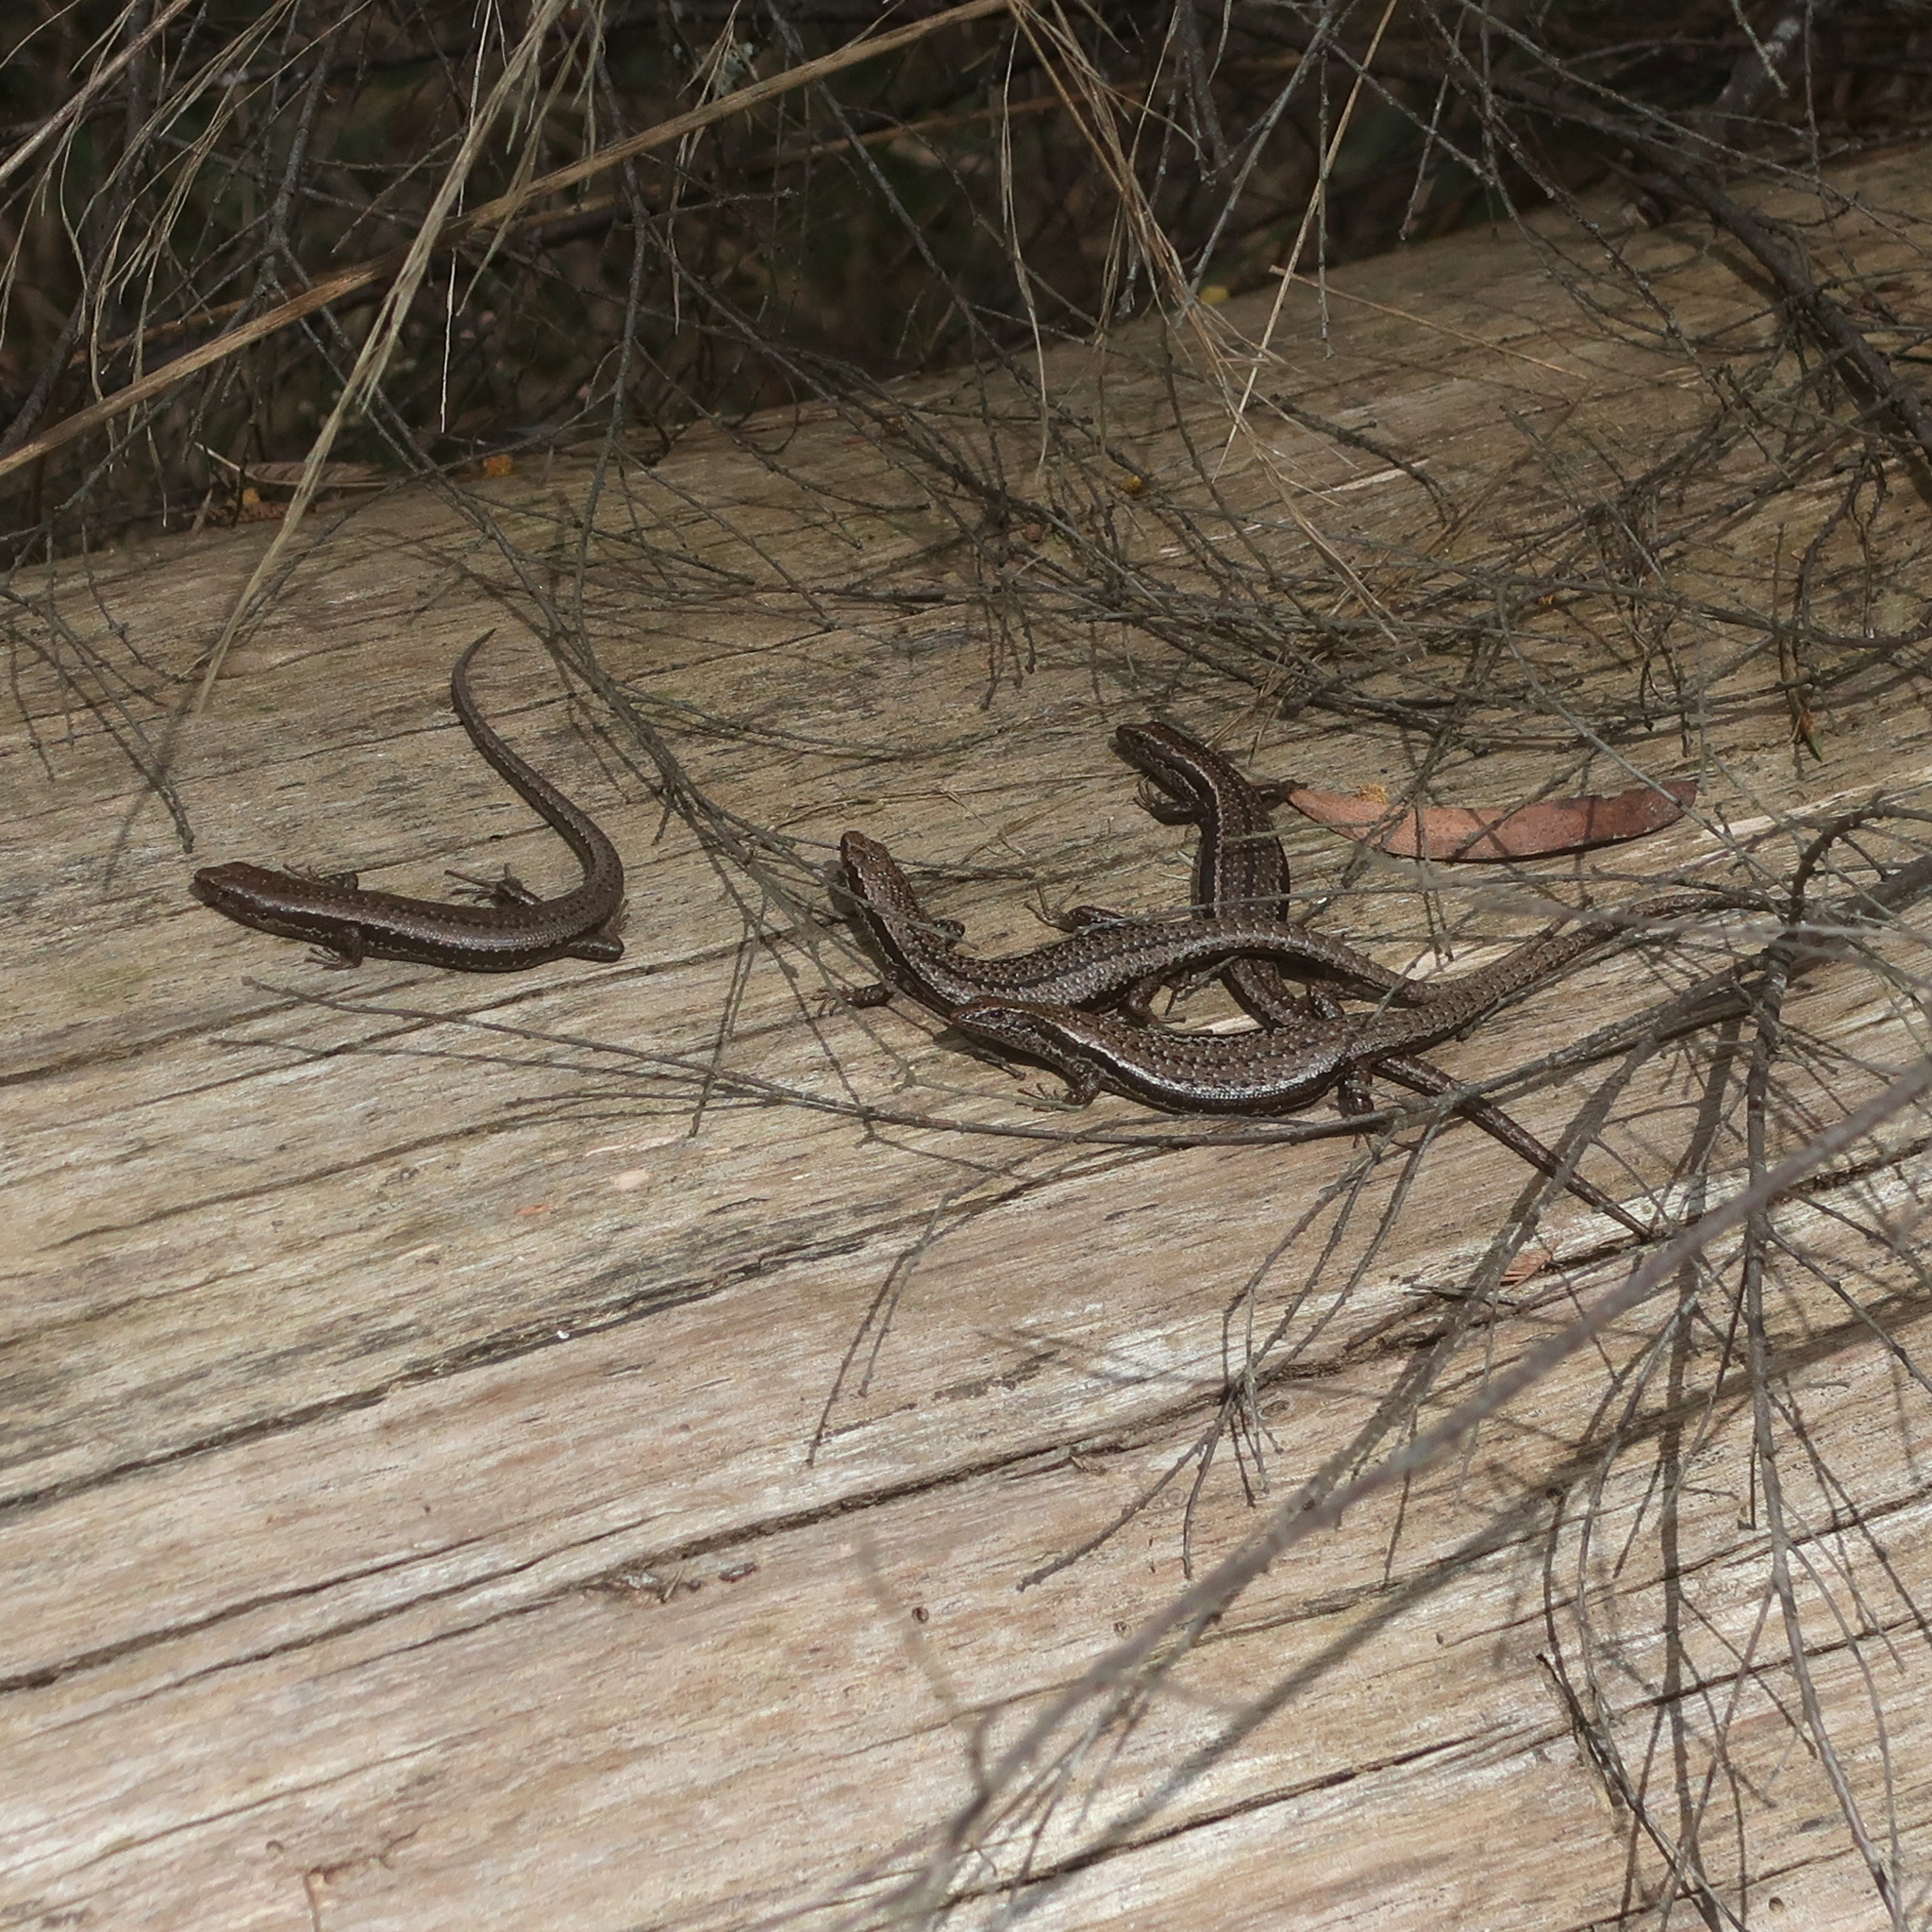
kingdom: Animalia
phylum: Chordata
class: Squamata
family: Scincidae
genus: Carinascincus
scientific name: Carinascincus pretiosus
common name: Agile cool-skink
